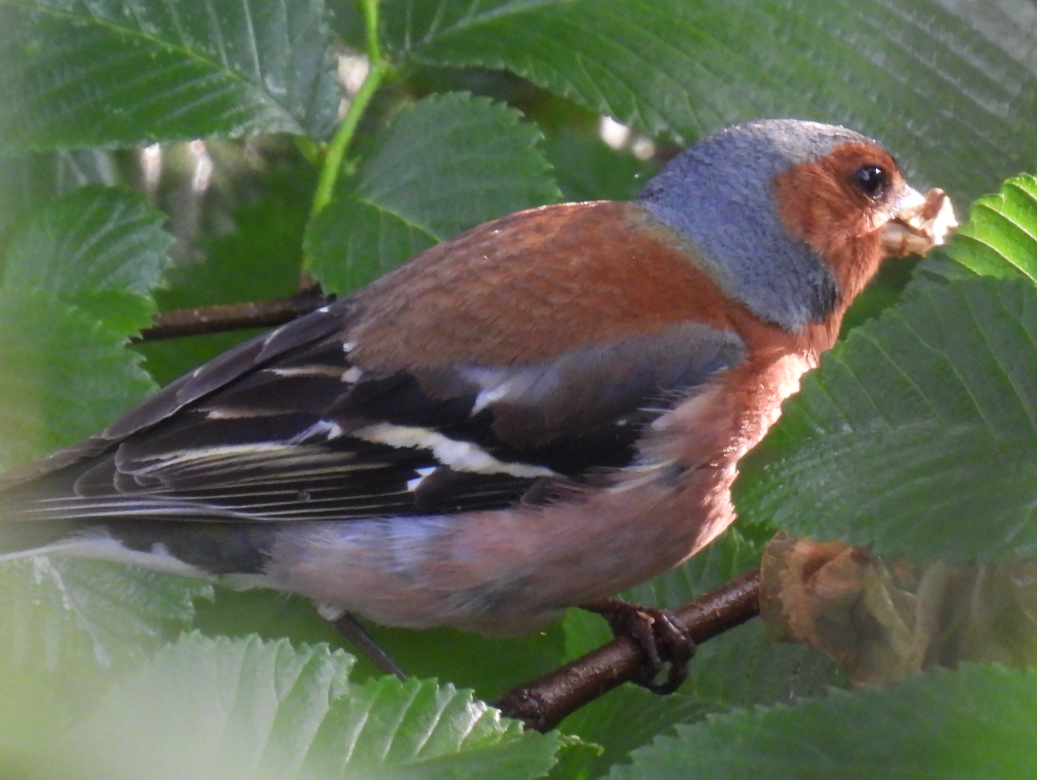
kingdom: Animalia
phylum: Chordata
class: Aves
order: Passeriformes
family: Fringillidae
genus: Fringilla
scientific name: Fringilla coelebs
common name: Common chaffinch
